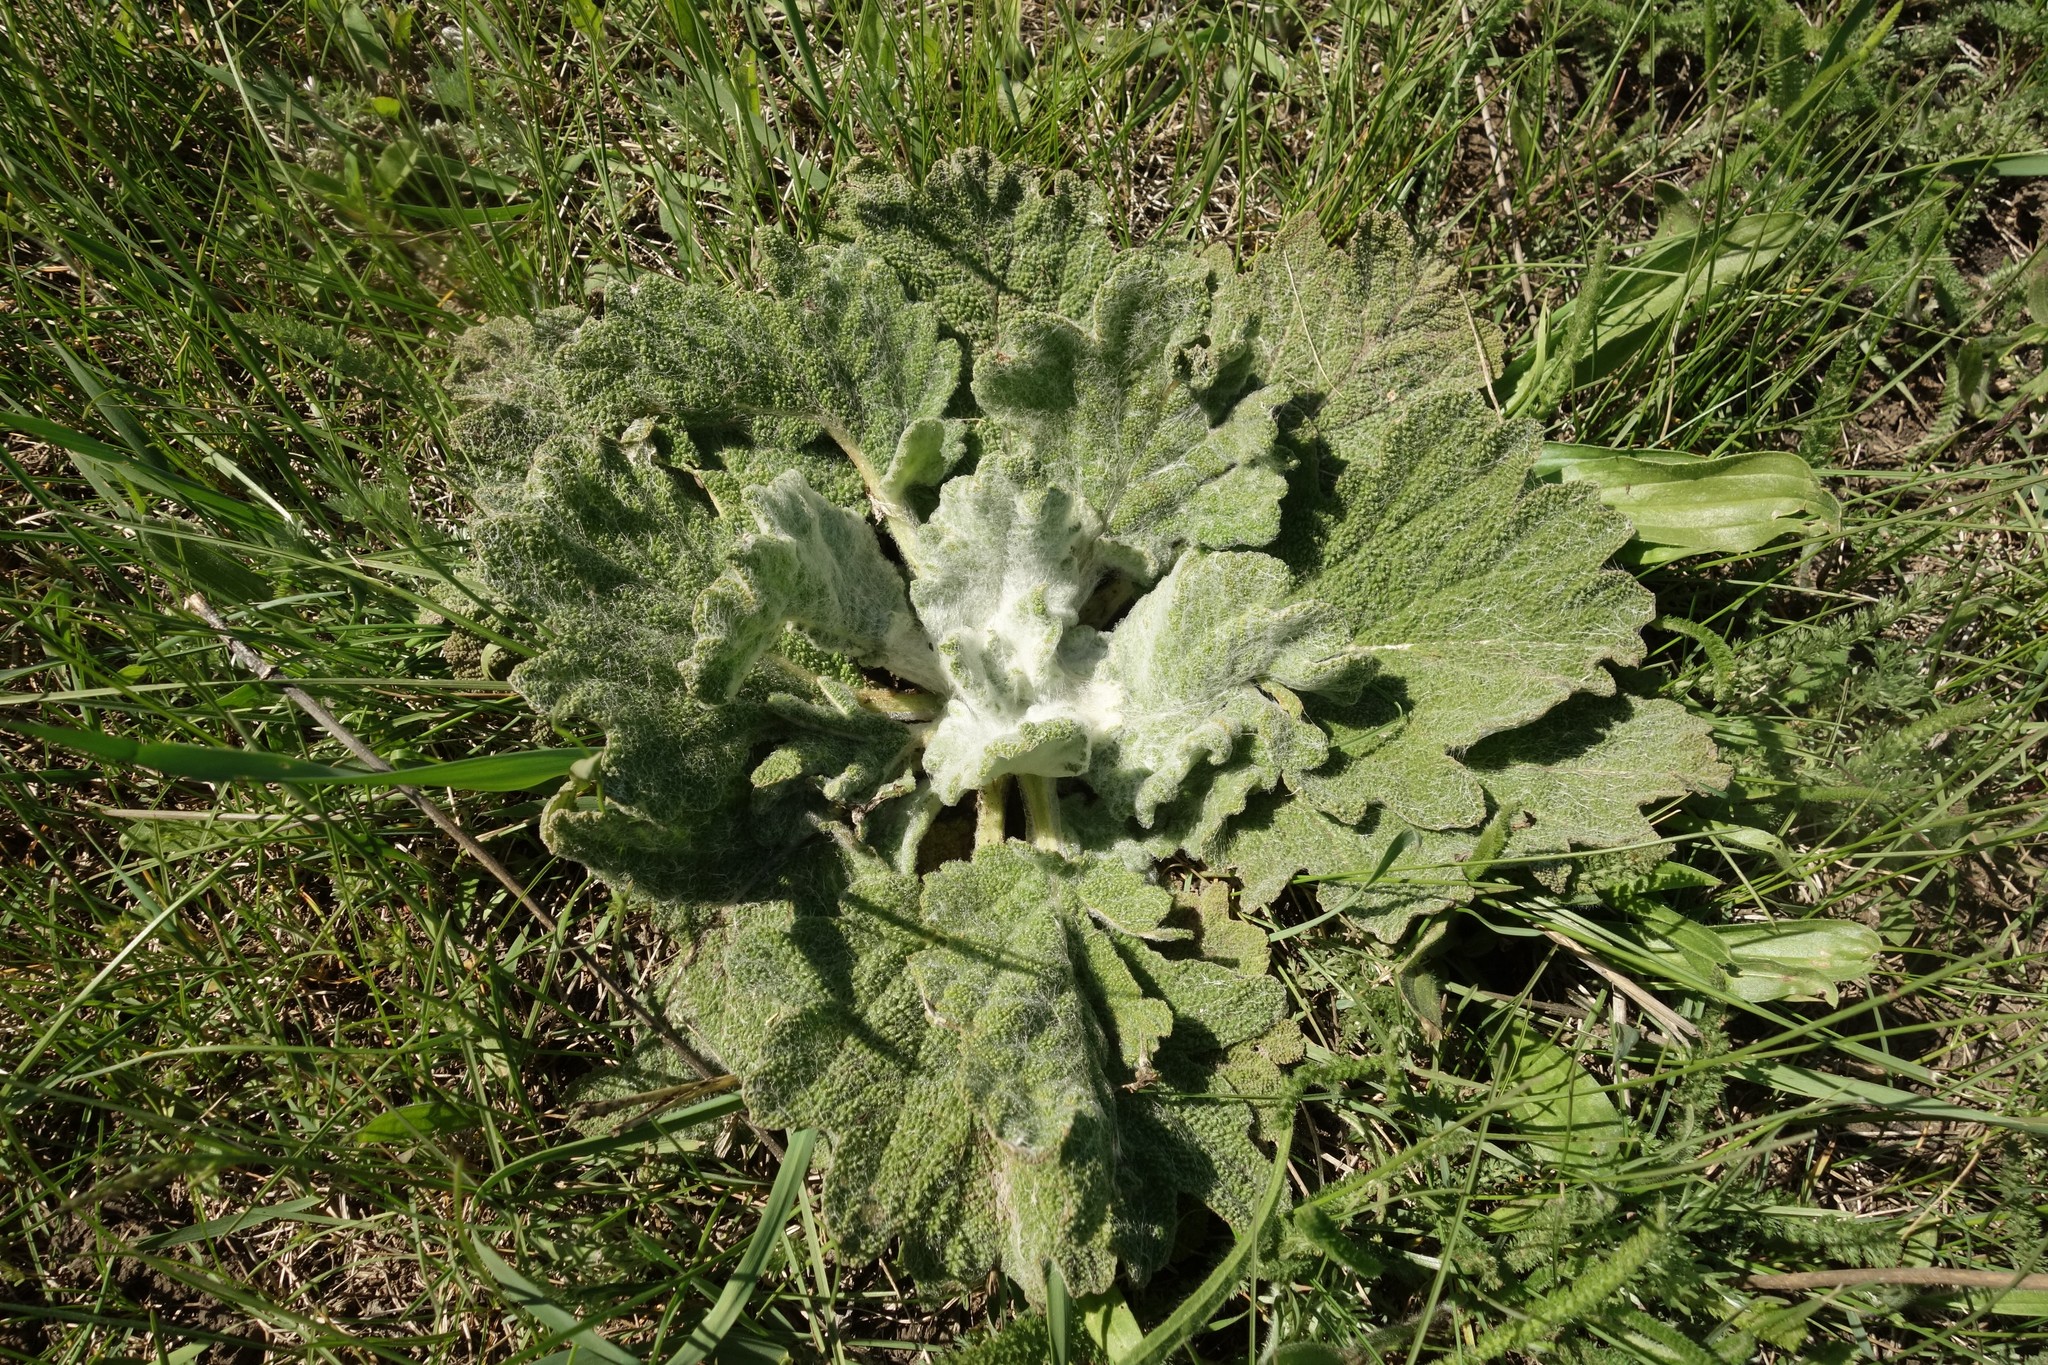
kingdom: Plantae
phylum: Tracheophyta
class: Magnoliopsida
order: Lamiales
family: Lamiaceae
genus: Salvia
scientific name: Salvia aethiopis
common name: Mediterranean sage
